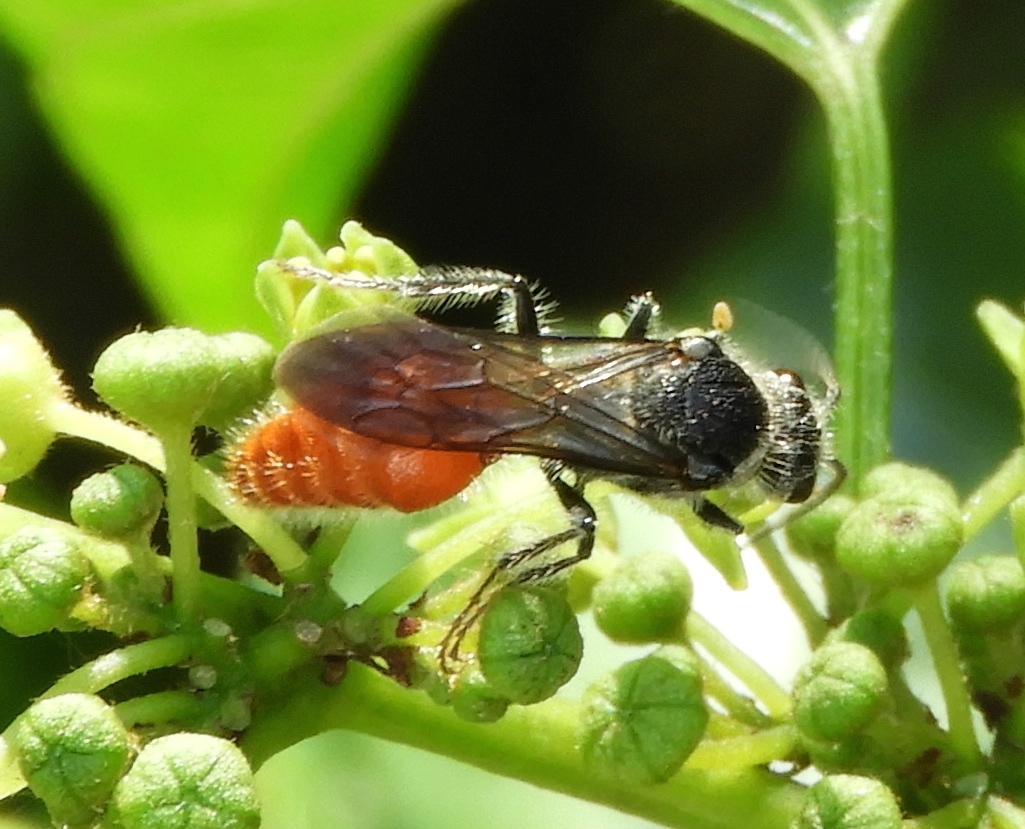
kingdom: Animalia
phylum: Arthropoda
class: Insecta
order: Hymenoptera
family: Mutillidae
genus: Timulla
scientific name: Timulla
